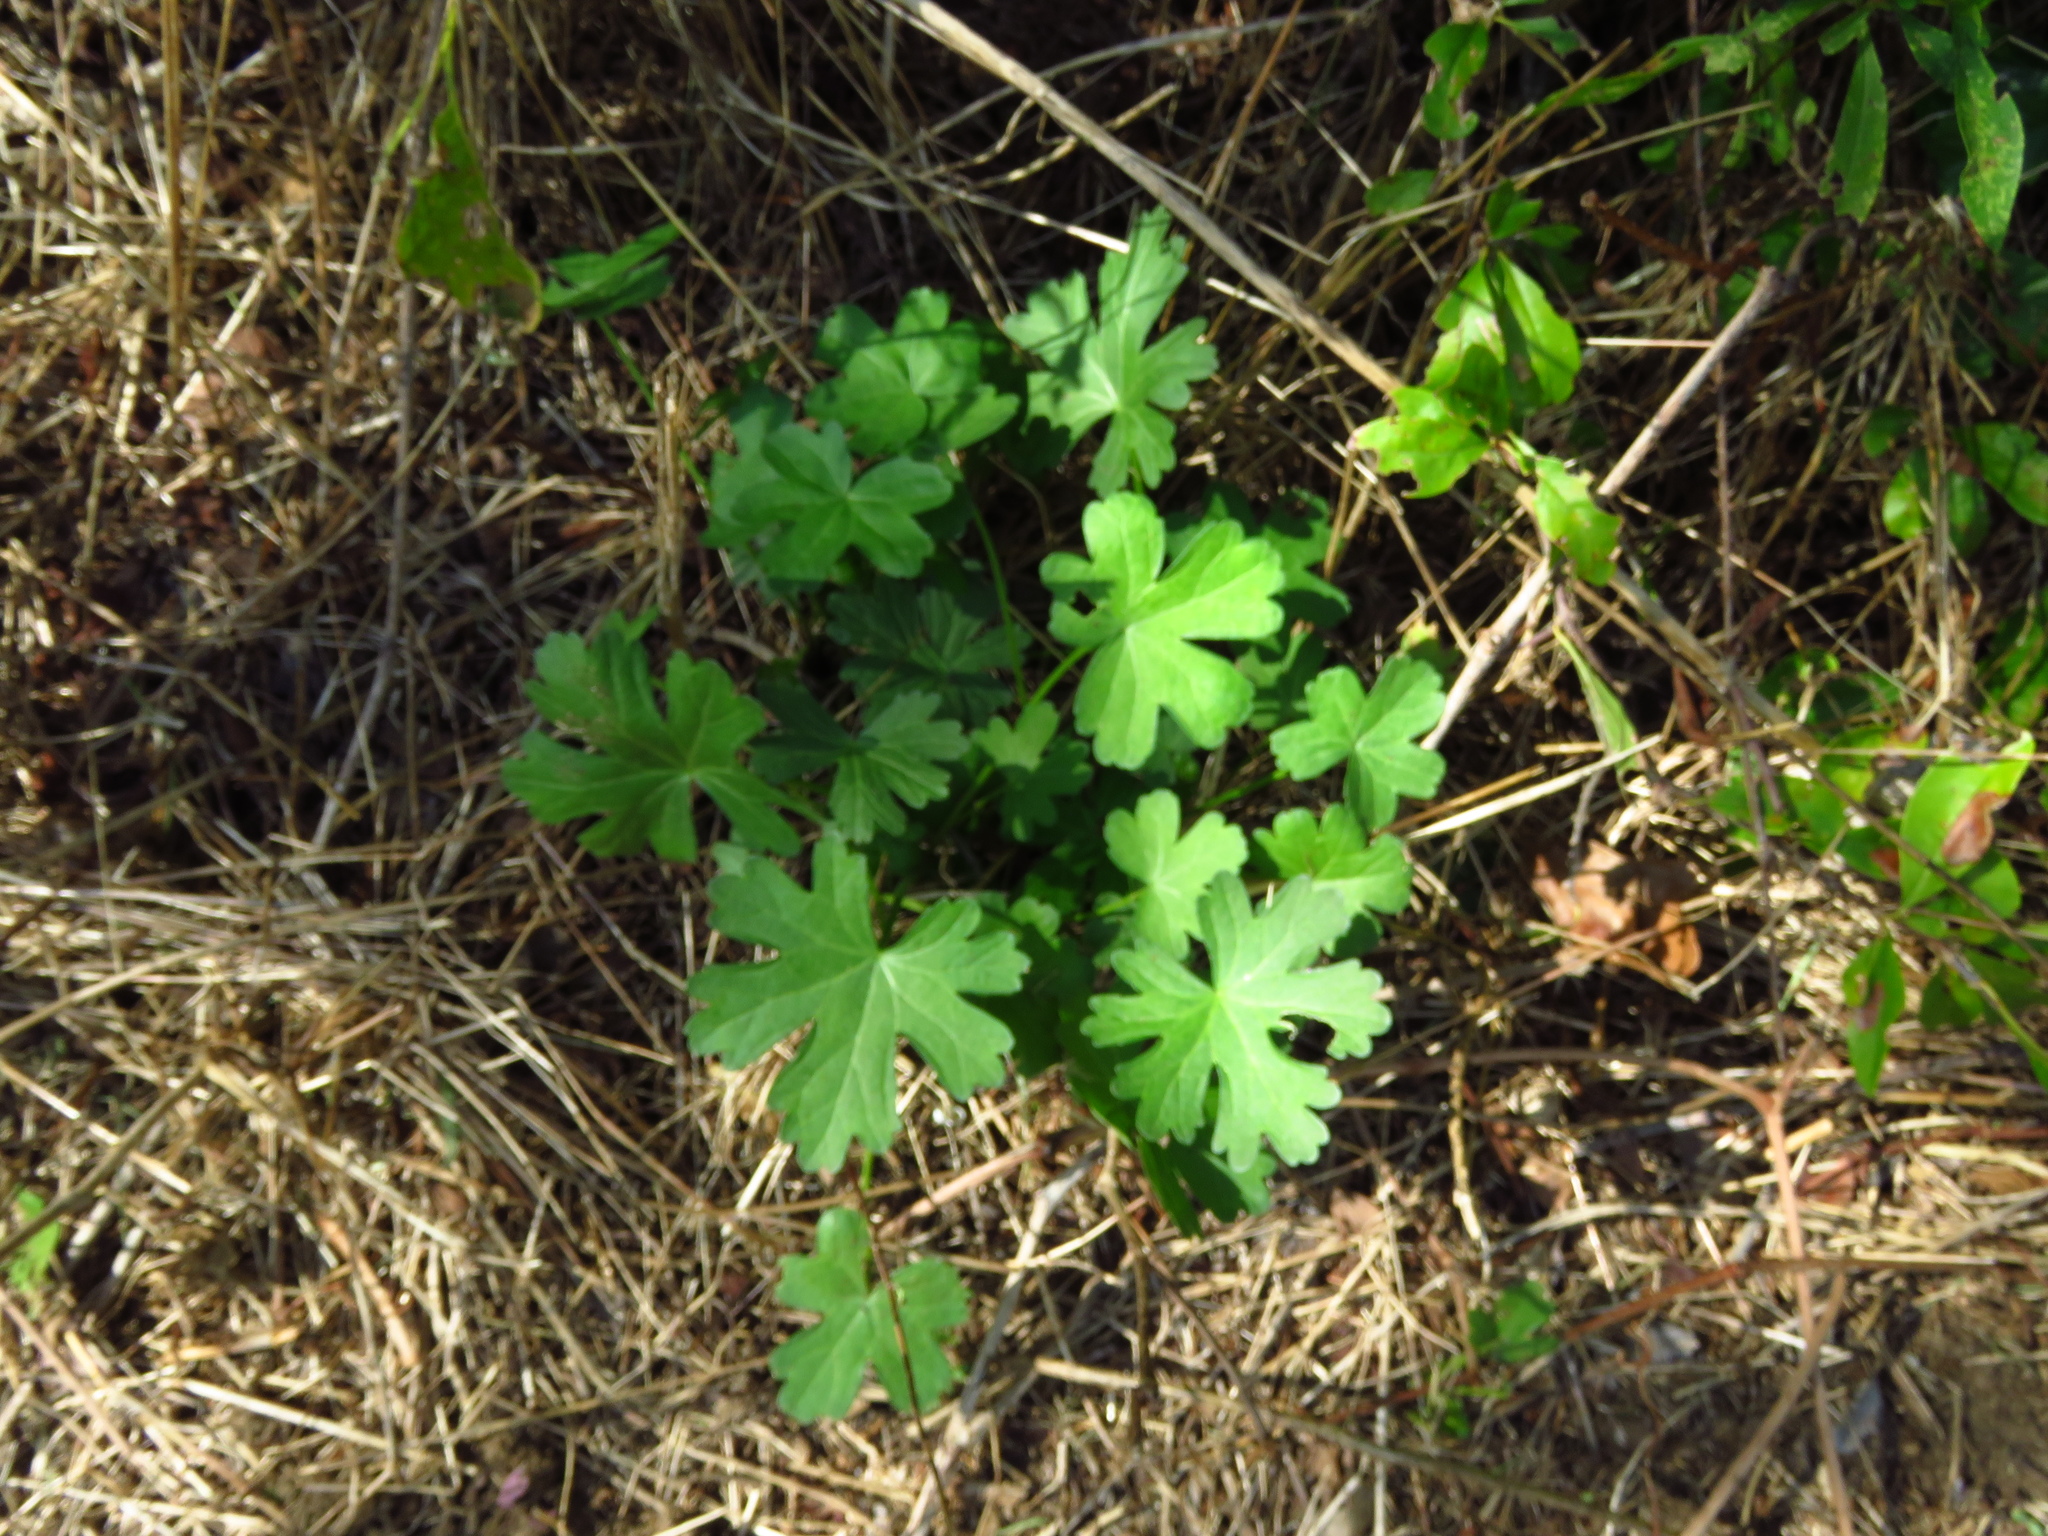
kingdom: Plantae
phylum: Tracheophyta
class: Magnoliopsida
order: Geraniales
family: Geraniaceae
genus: Geranium
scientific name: Geranium carolinianum
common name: Carolina crane's-bill
